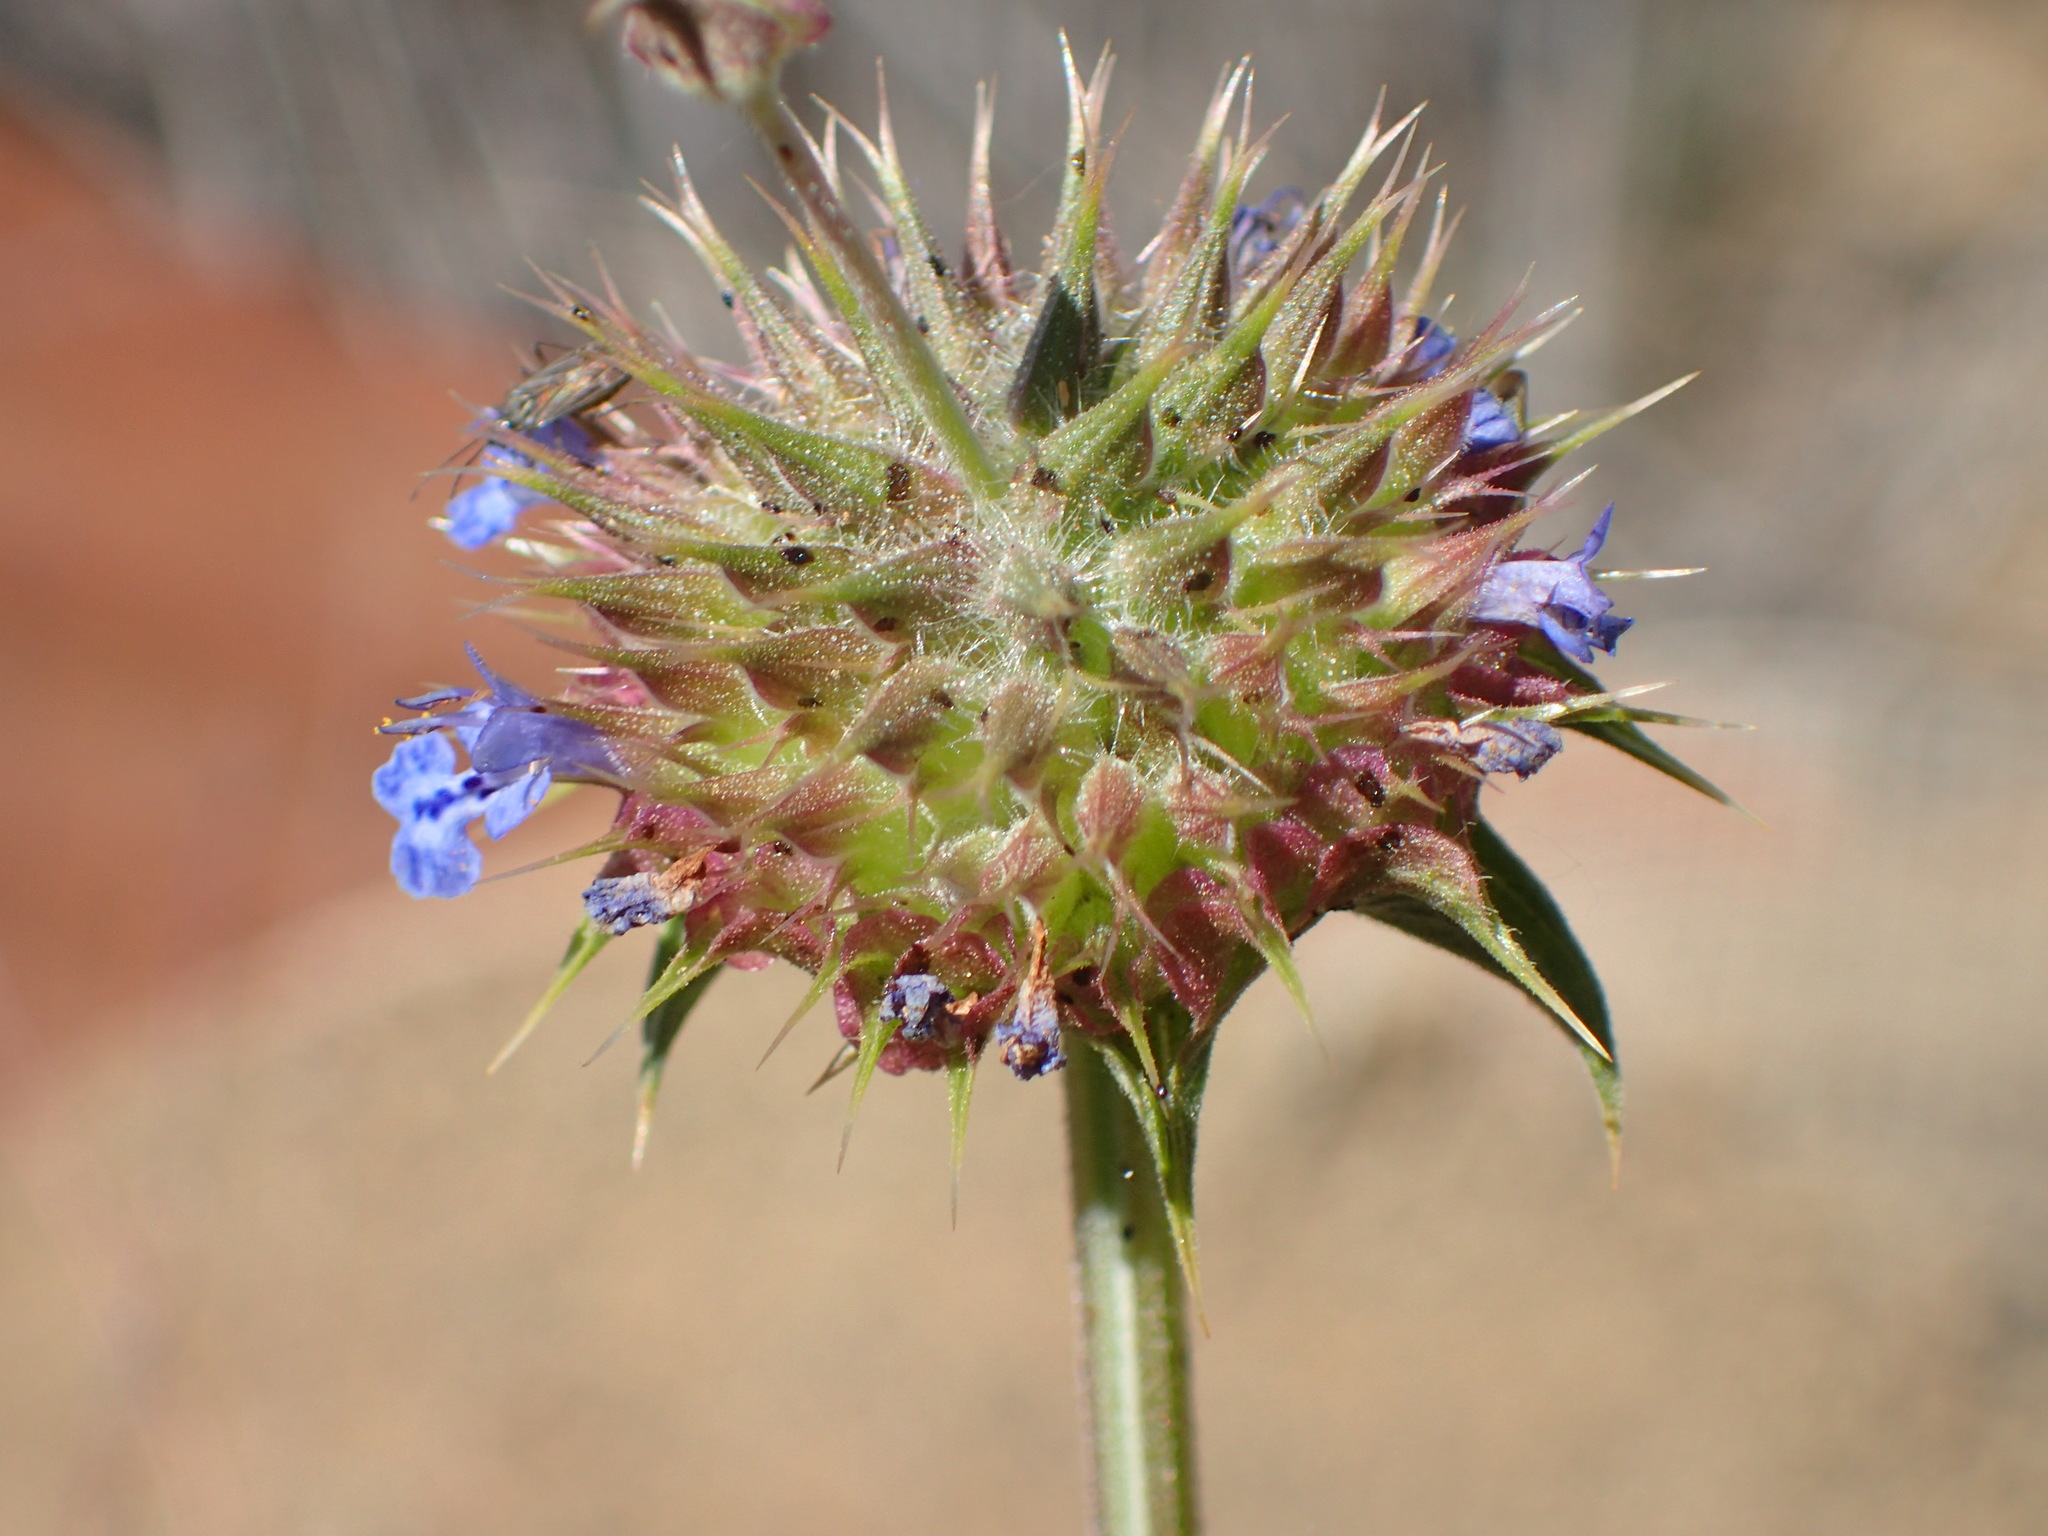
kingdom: Plantae
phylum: Tracheophyta
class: Magnoliopsida
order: Lamiales
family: Lamiaceae
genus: Salvia
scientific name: Salvia columbariae
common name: Chia
